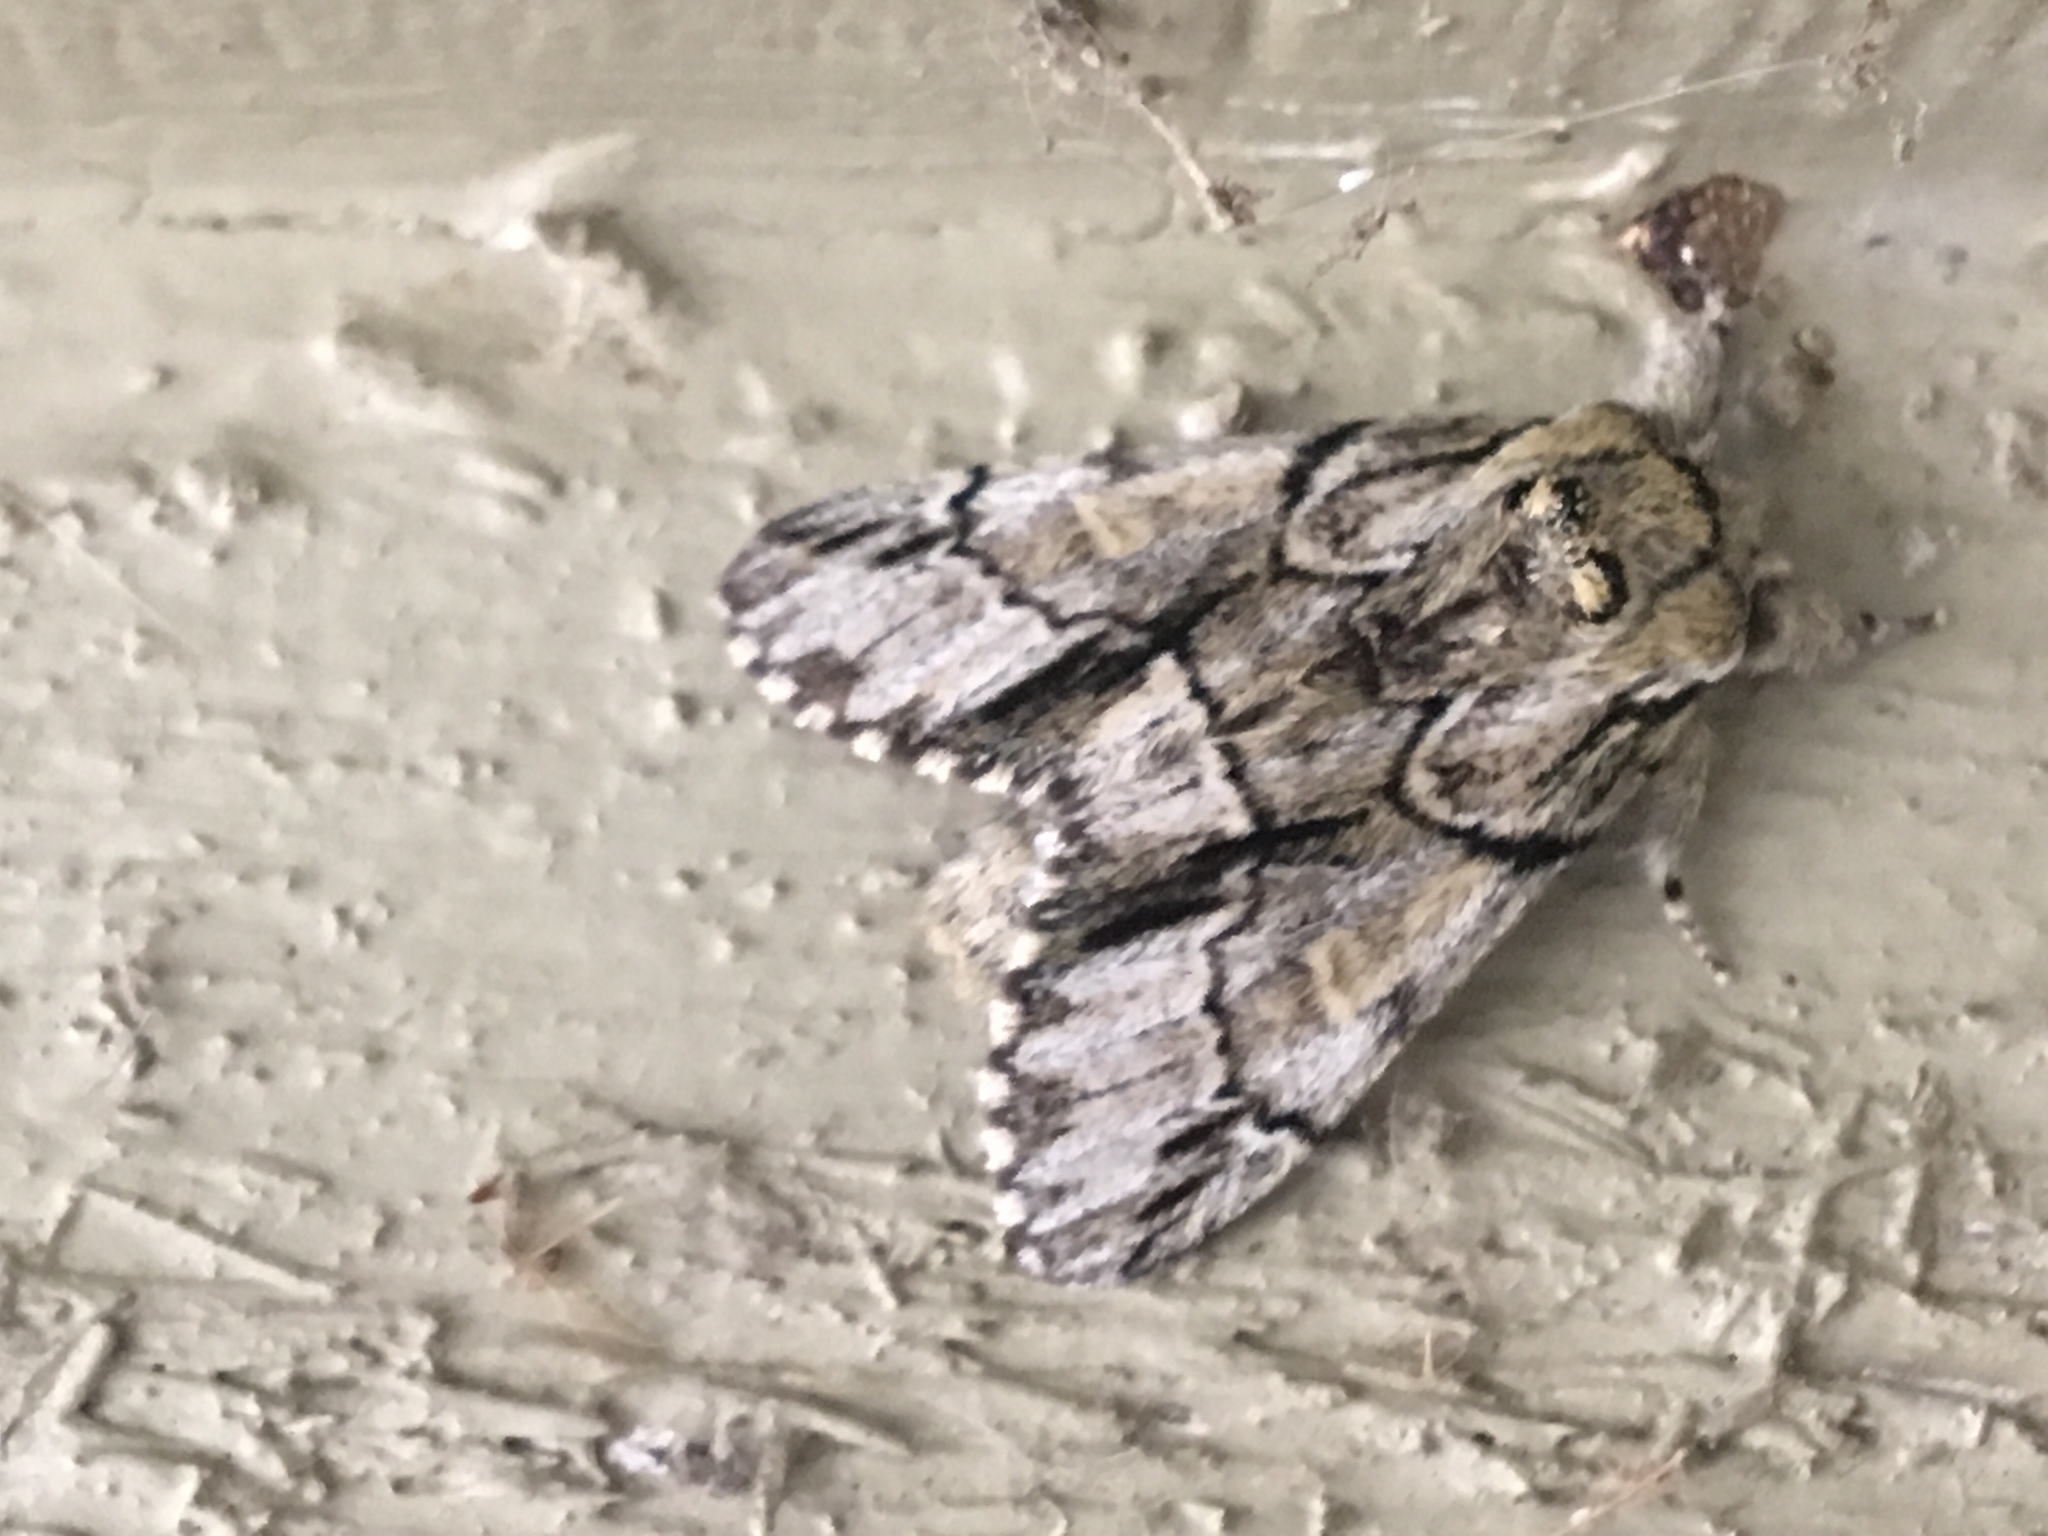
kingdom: Animalia
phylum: Arthropoda
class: Insecta
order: Lepidoptera
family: Notodontidae
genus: Paraeschra
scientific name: Paraeschra georgica
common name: Georgian prominent
